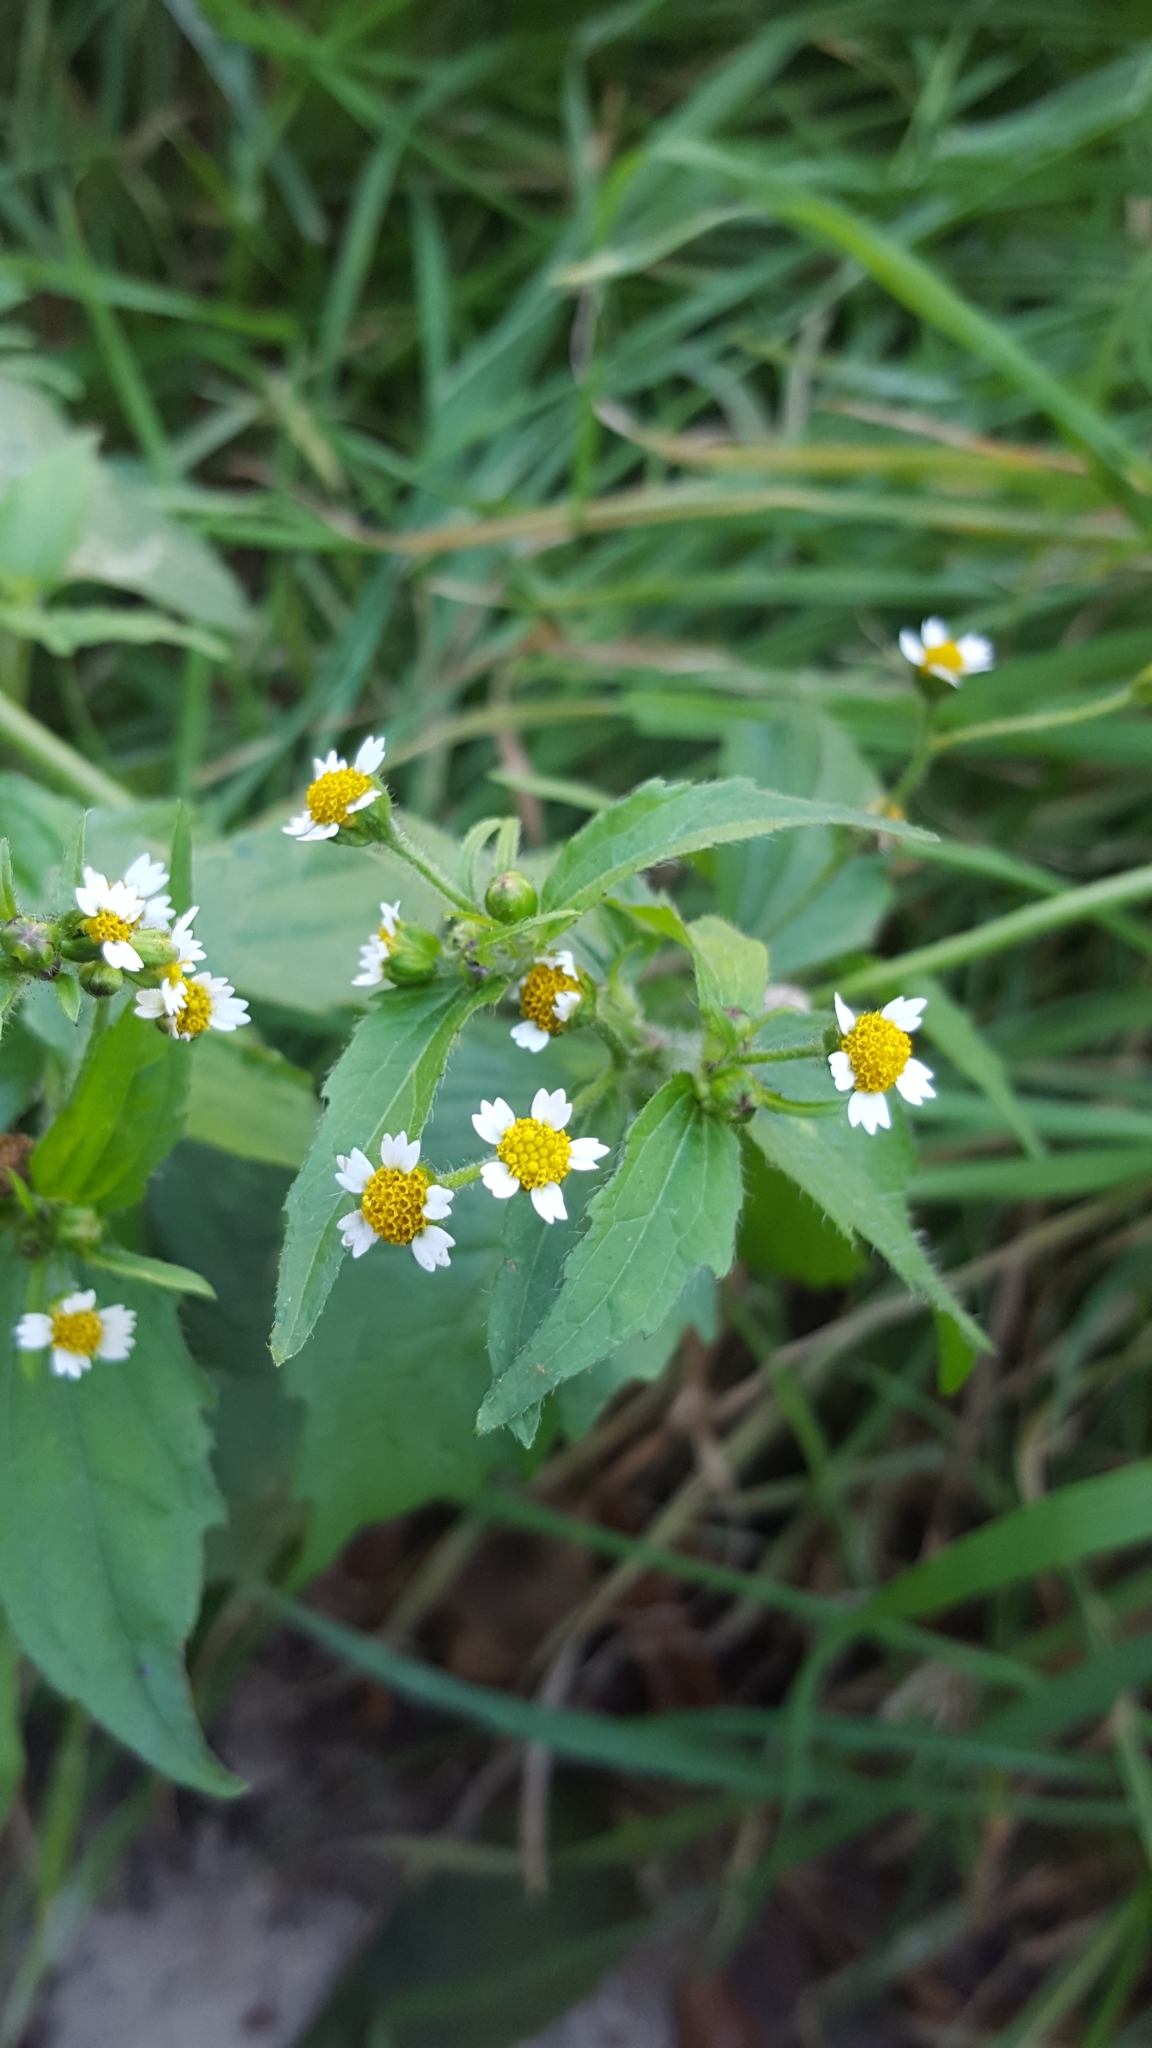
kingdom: Plantae
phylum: Tracheophyta
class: Magnoliopsida
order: Asterales
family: Asteraceae
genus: Galinsoga
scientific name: Galinsoga quadriradiata
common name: Shaggy soldier
